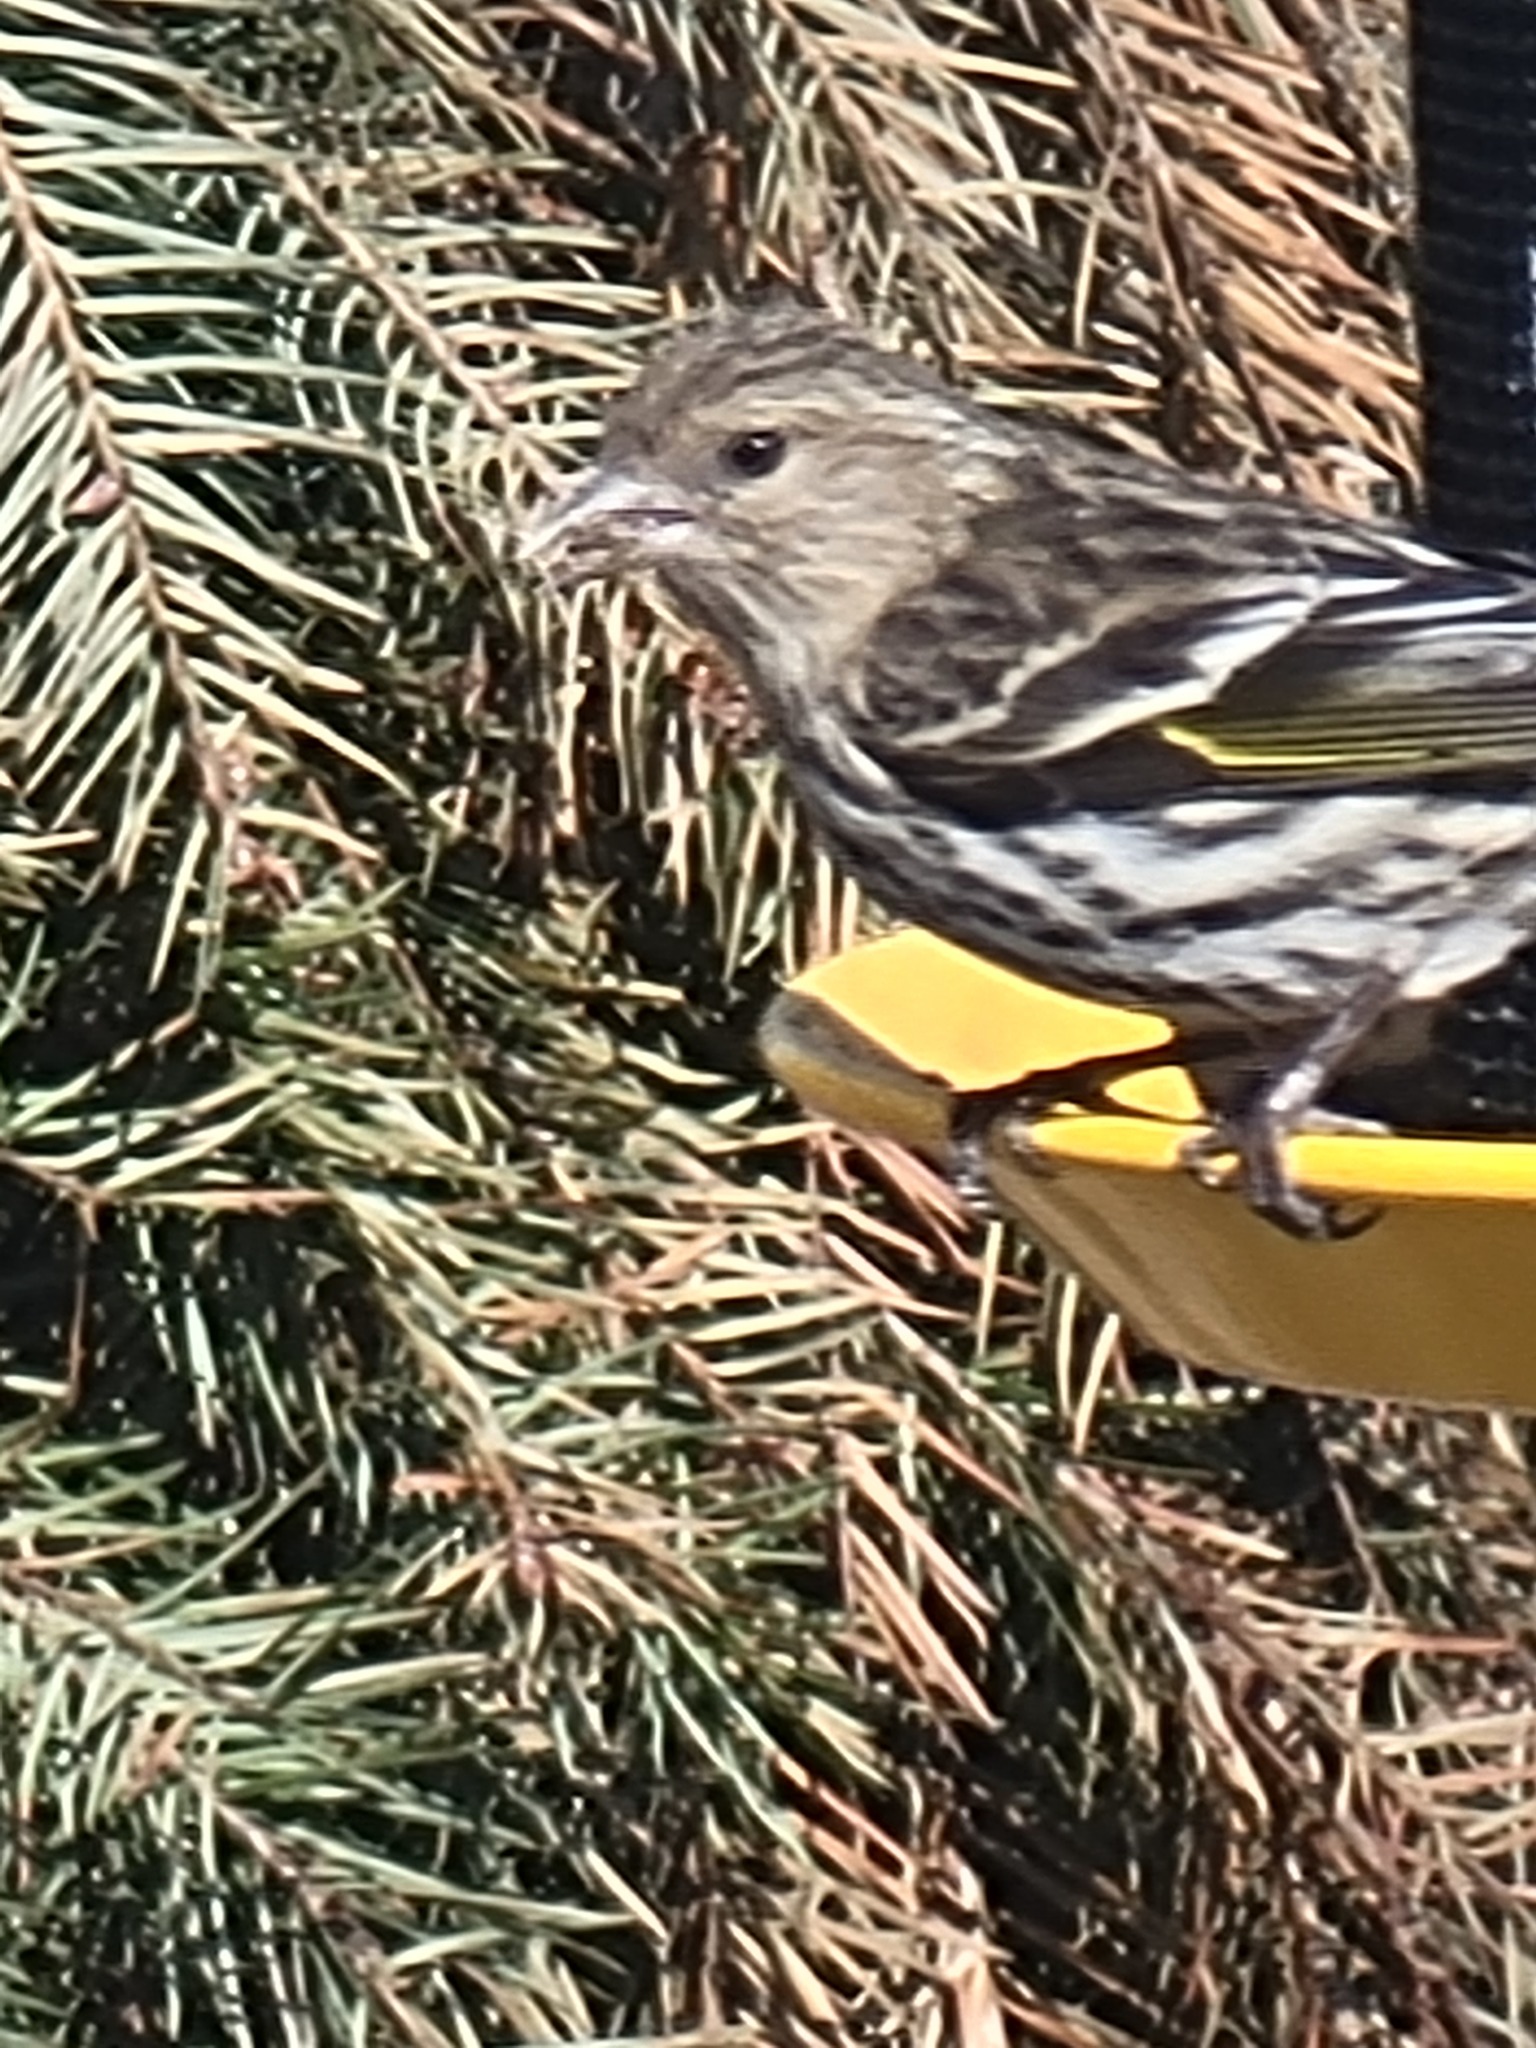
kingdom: Animalia
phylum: Chordata
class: Aves
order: Passeriformes
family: Fringillidae
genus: Spinus
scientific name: Spinus pinus
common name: Pine siskin
